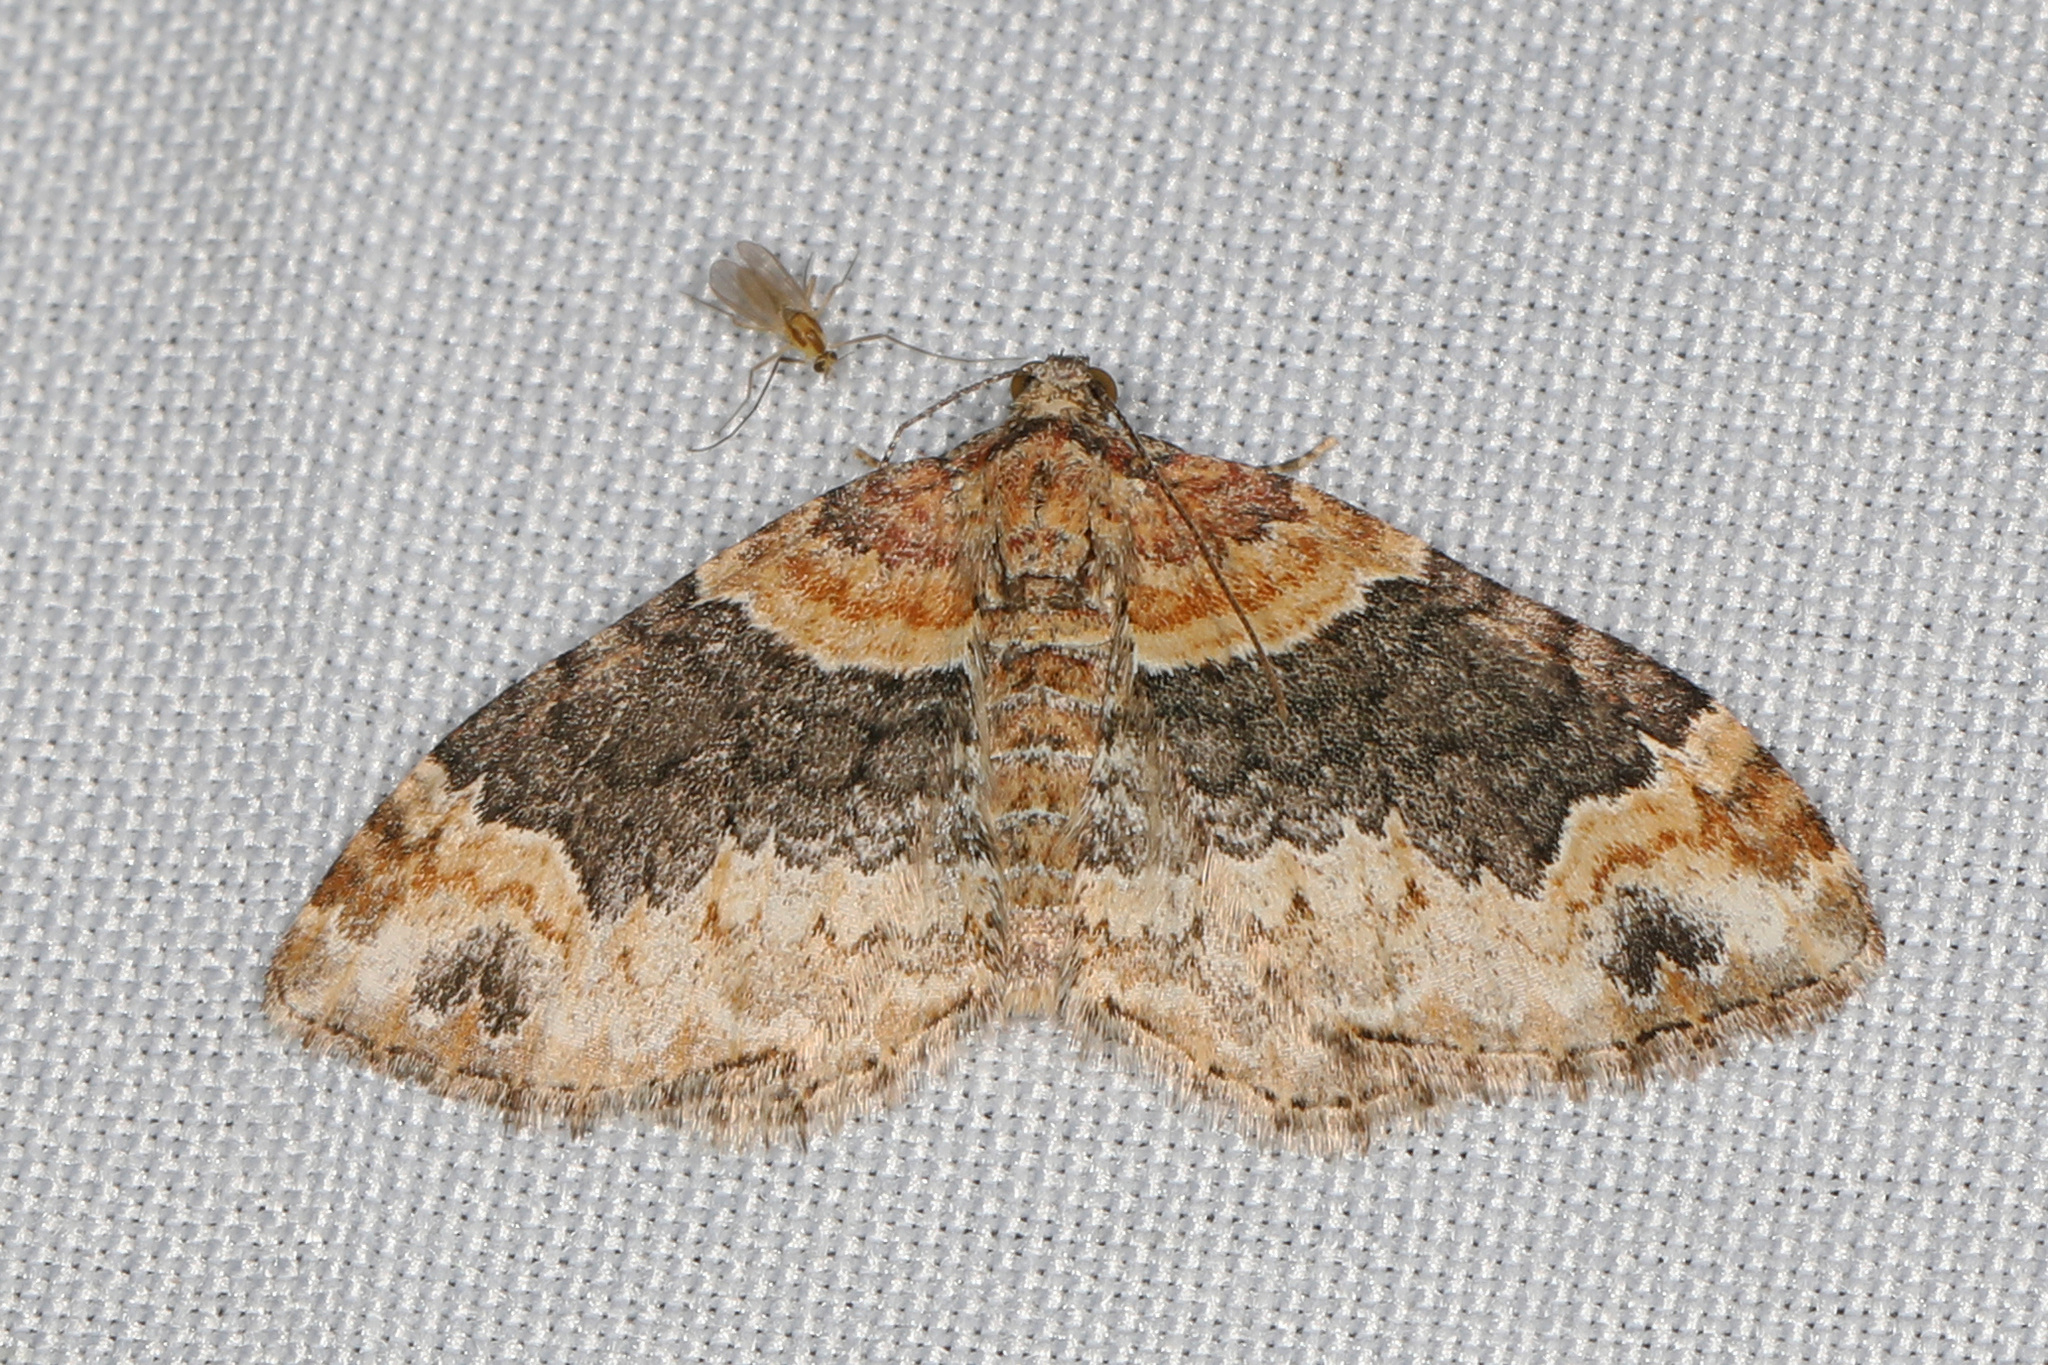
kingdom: Animalia
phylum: Arthropoda
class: Insecta
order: Lepidoptera
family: Geometridae
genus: Xanthorhoe
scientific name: Xanthorhoe ferrugata
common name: Dark-barred twin-spot carpet
